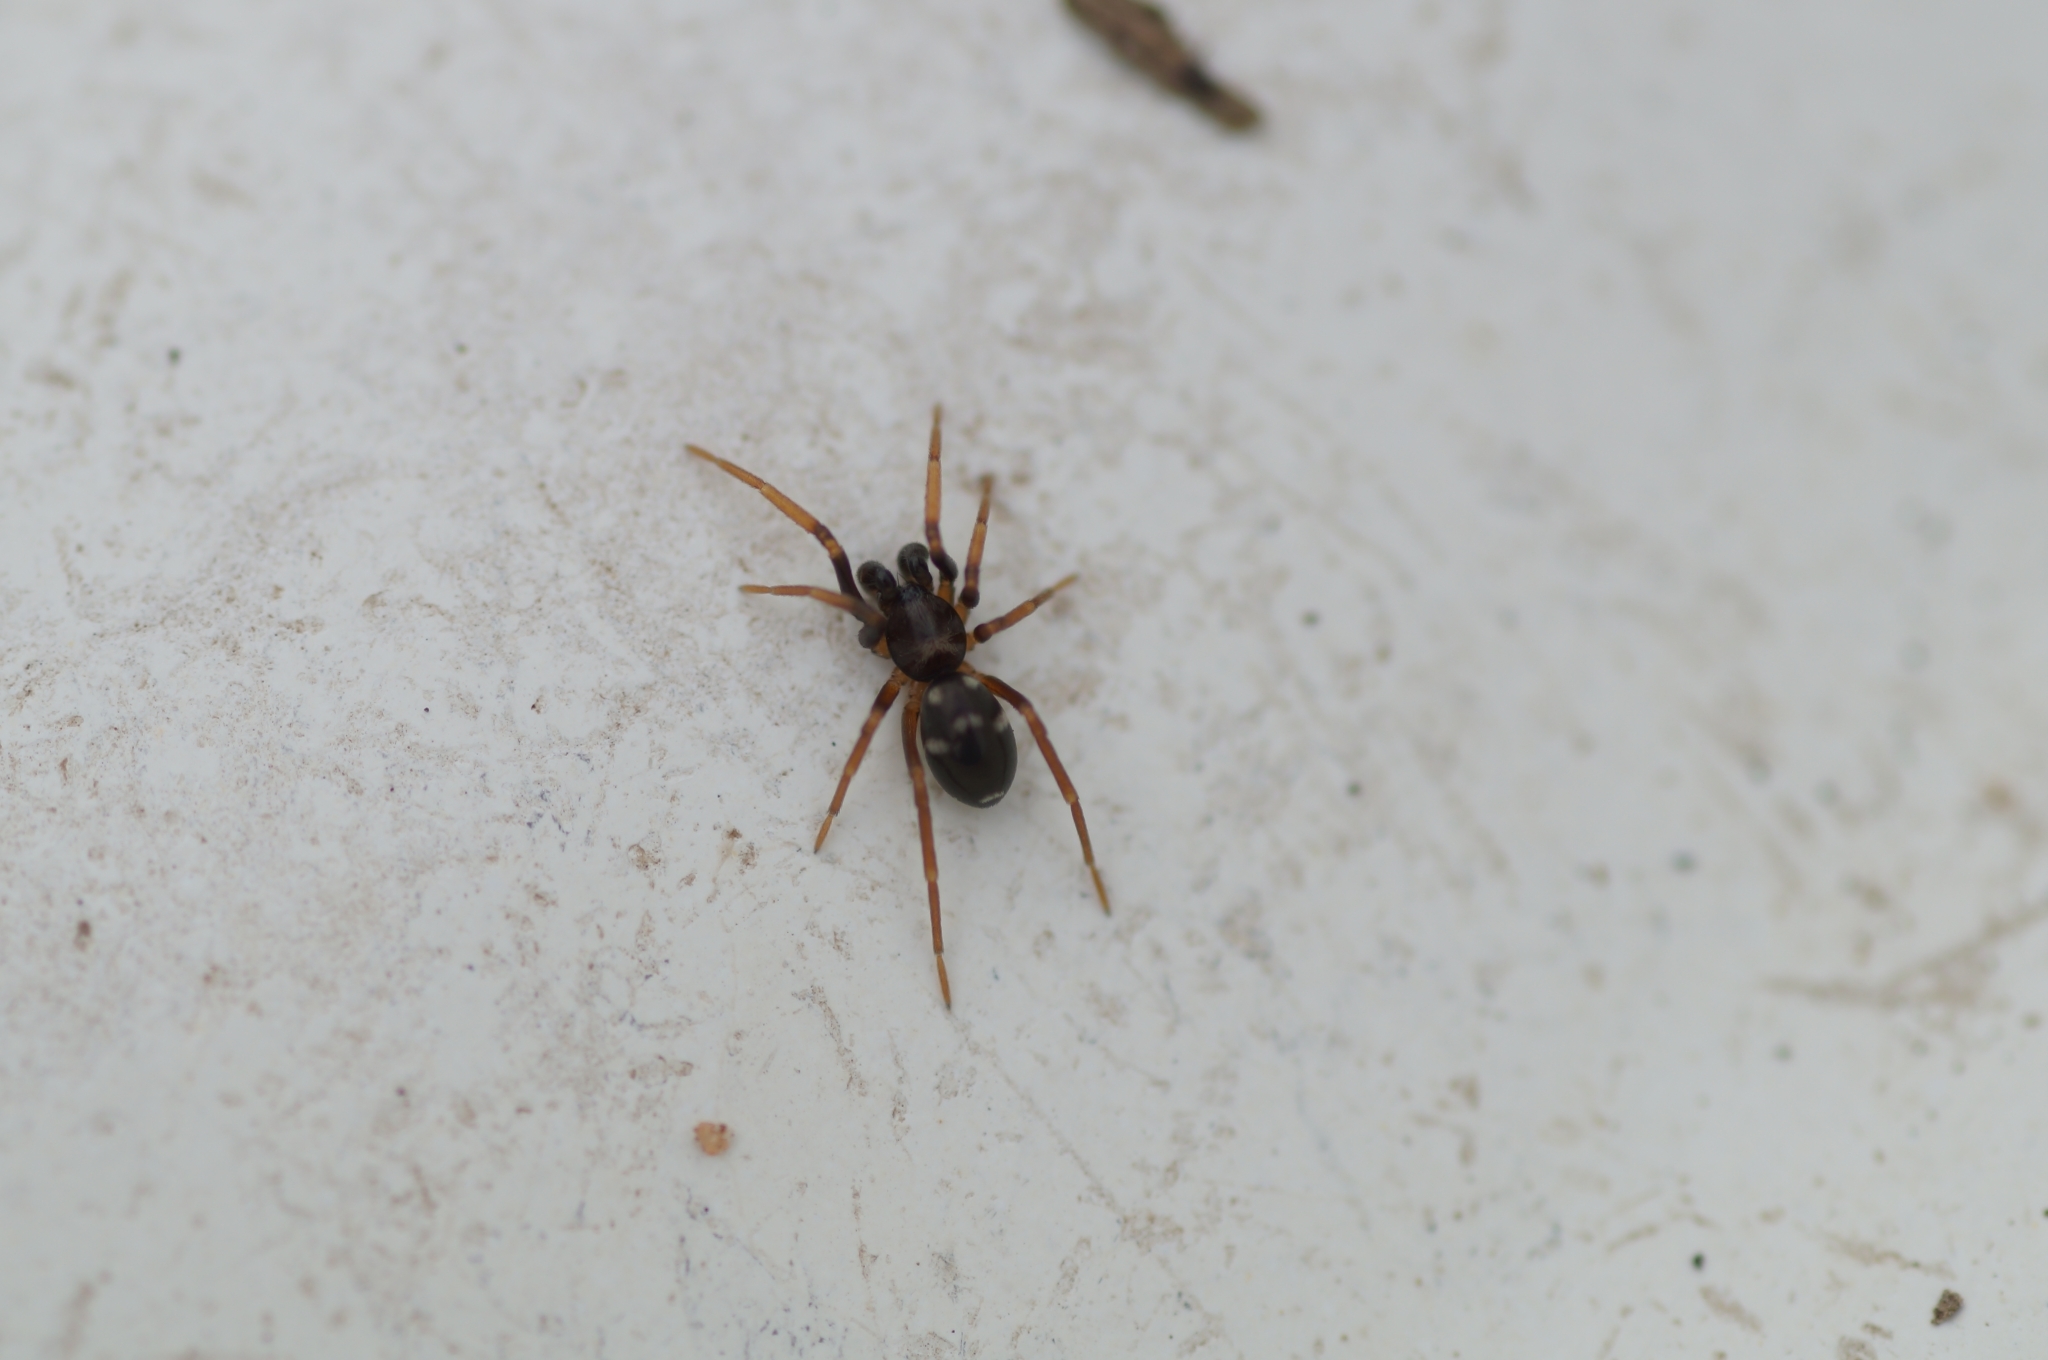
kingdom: Animalia
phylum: Arthropoda
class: Arachnida
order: Araneae
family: Phrurolithidae
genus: Phrurolithus
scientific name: Phrurolithus festivus
